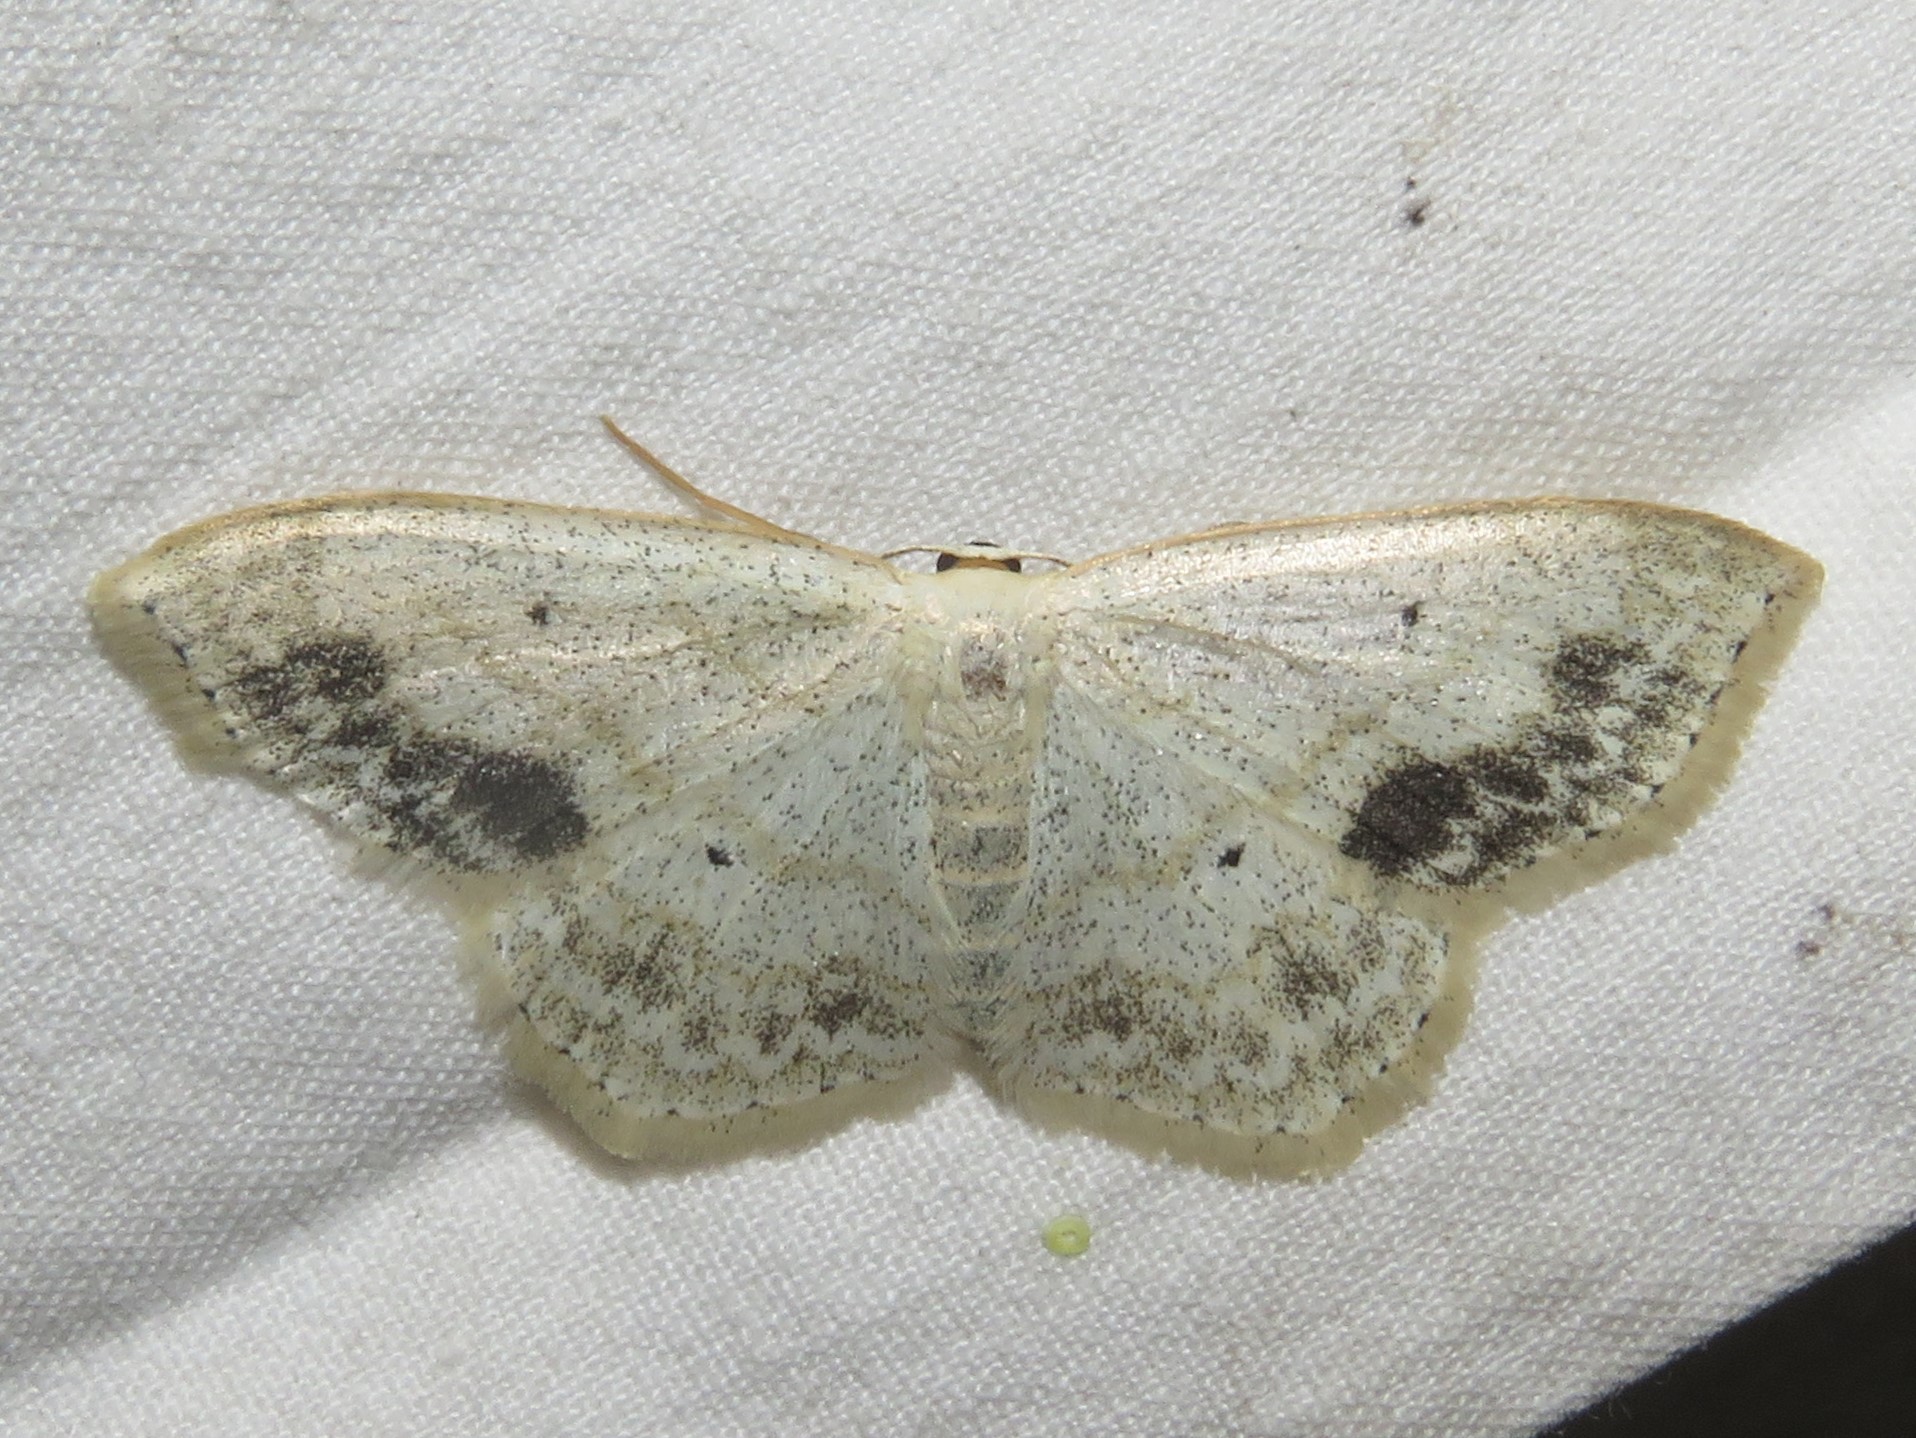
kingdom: Animalia
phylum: Arthropoda
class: Insecta
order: Lepidoptera
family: Geometridae
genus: Scopula
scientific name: Scopula limboundata
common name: Large lace border
